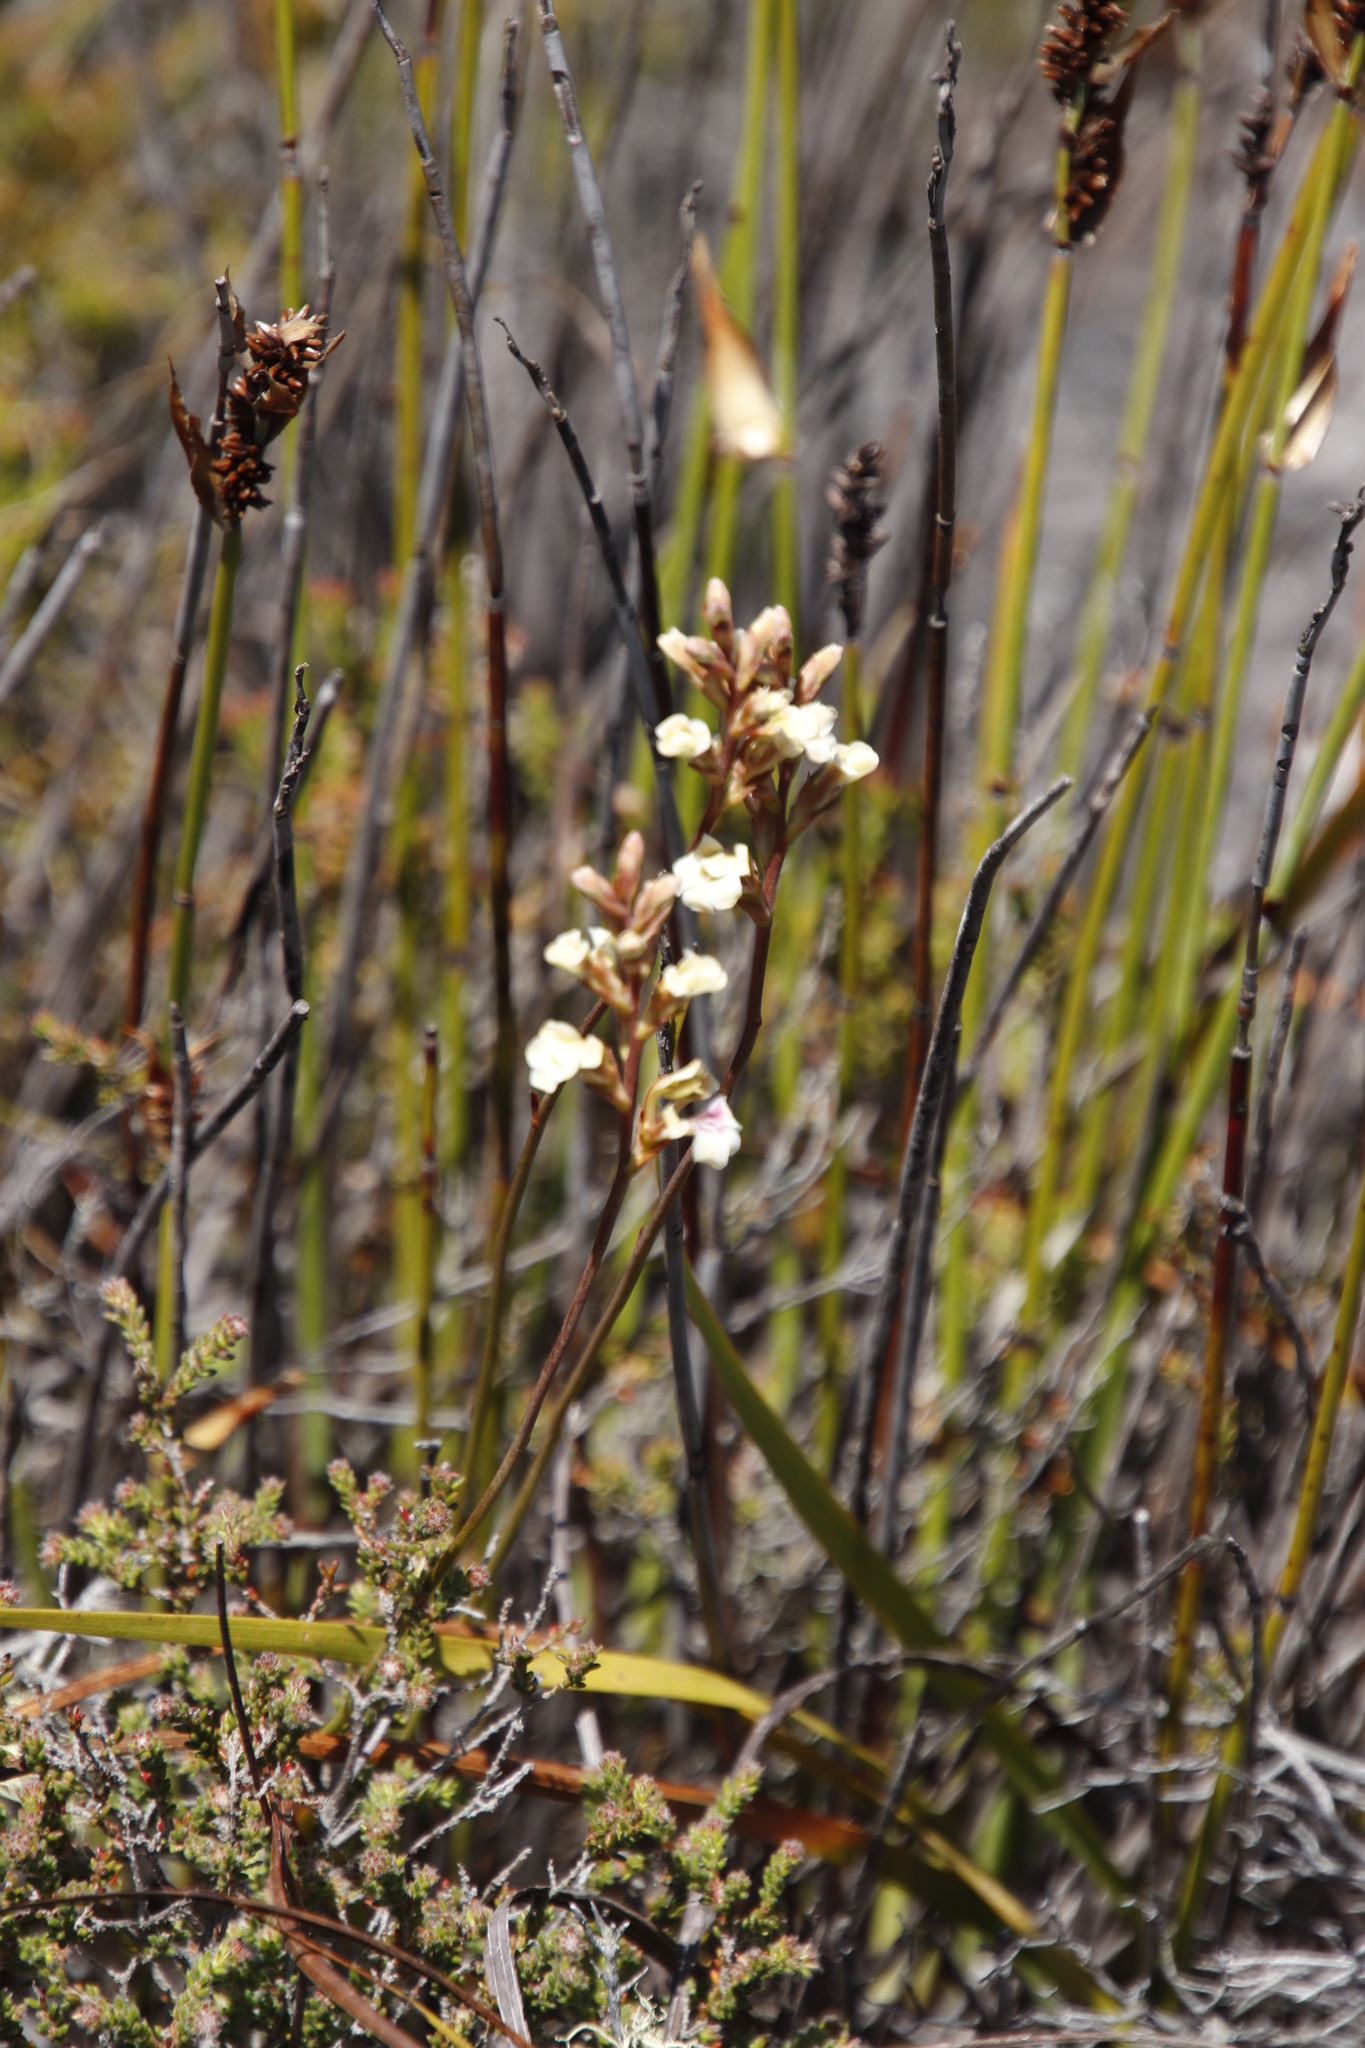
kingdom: Plantae
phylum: Tracheophyta
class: Liliopsida
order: Asparagales
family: Iridaceae
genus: Tritoniopsis
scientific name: Tritoniopsis unguicularis
